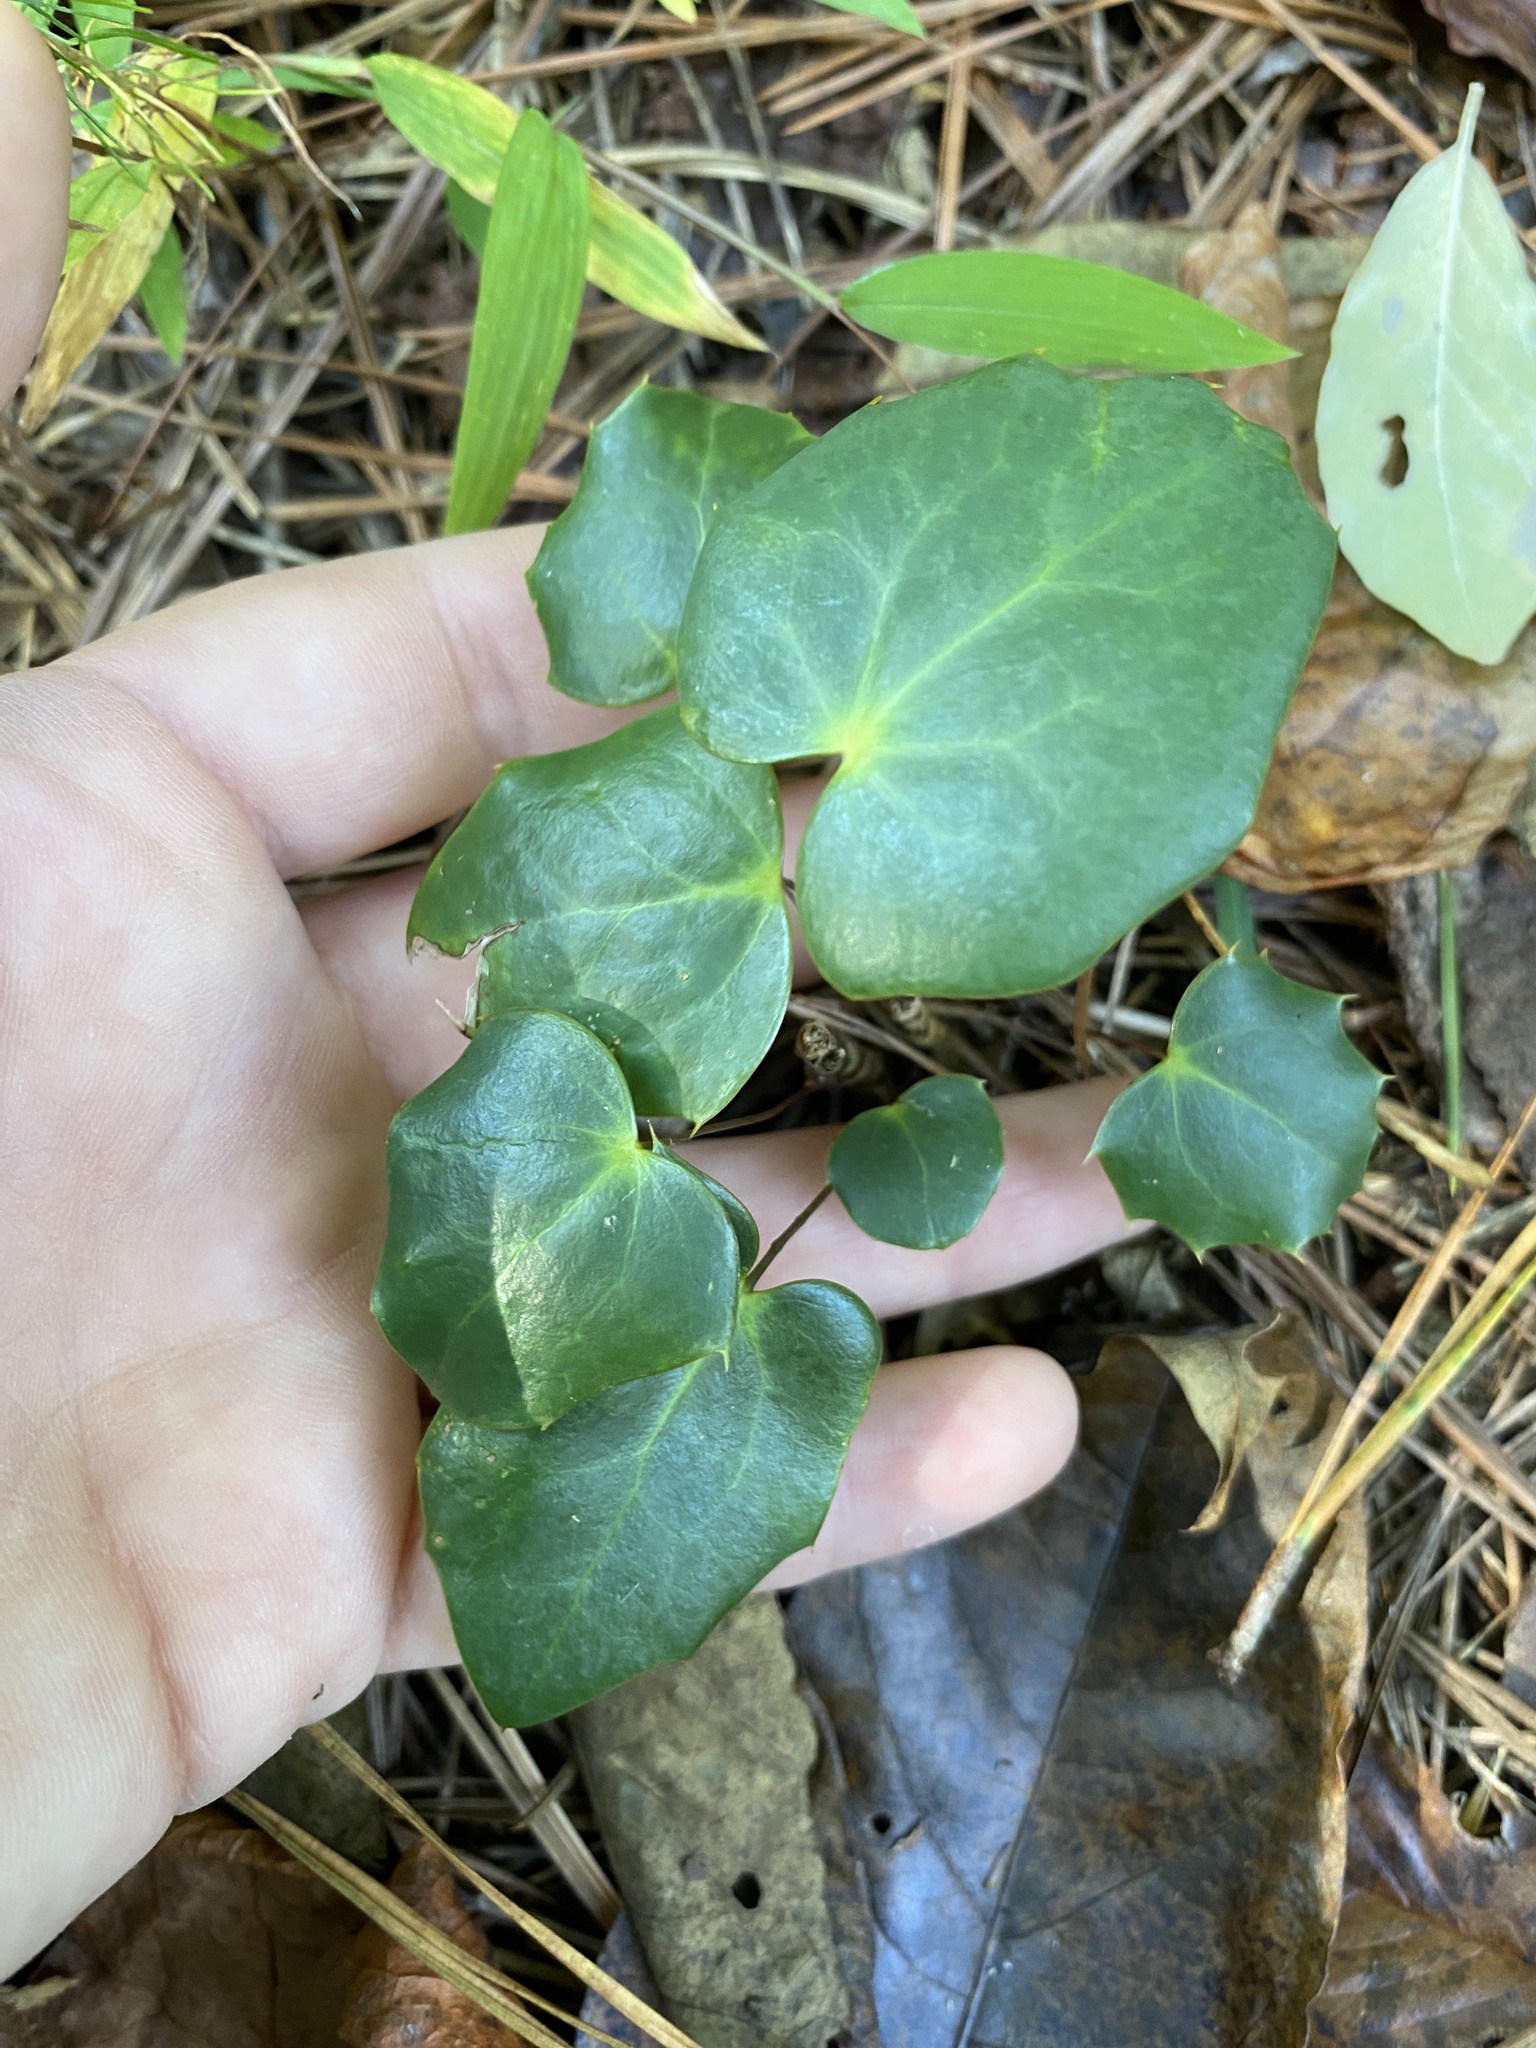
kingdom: Plantae
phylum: Tracheophyta
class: Magnoliopsida
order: Ranunculales
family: Berberidaceae
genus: Mahonia
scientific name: Mahonia bealei
